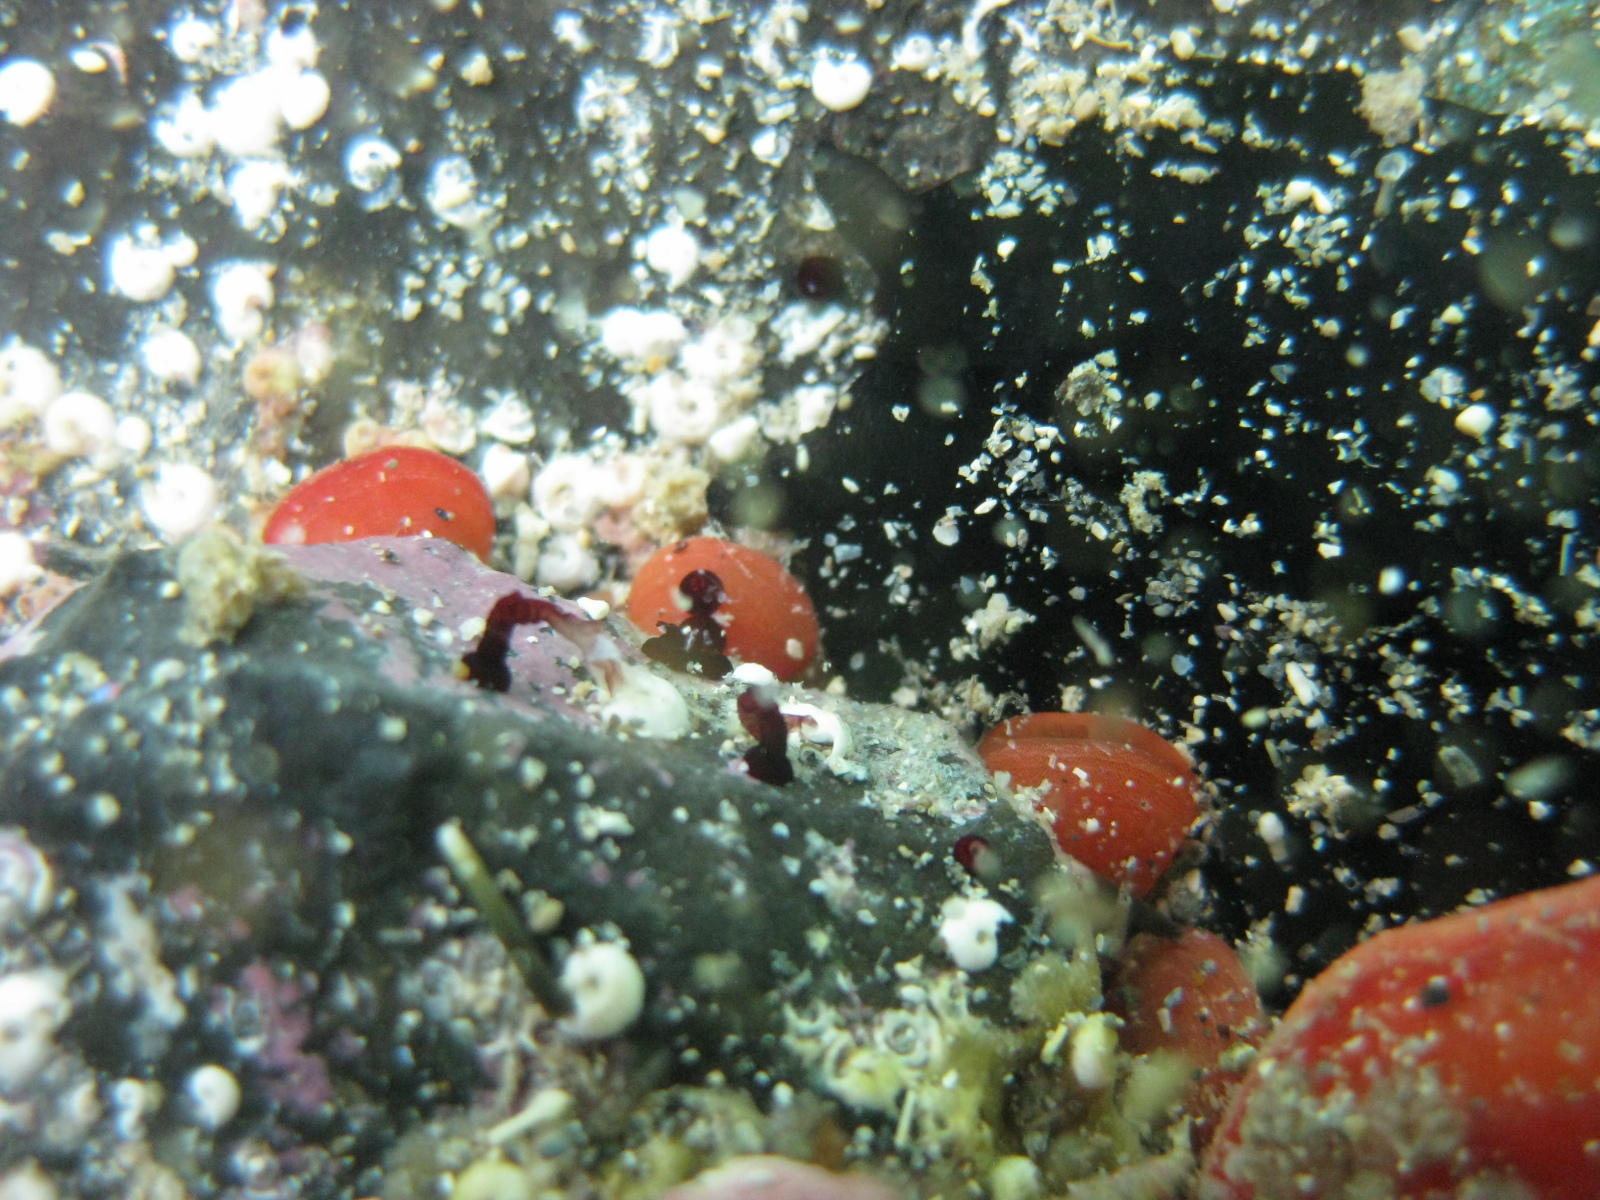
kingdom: Animalia
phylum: Brachiopoda
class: Rhynchonellata
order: Terebratulida
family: Terebratellidae
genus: Calloria
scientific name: Calloria inconspicua
